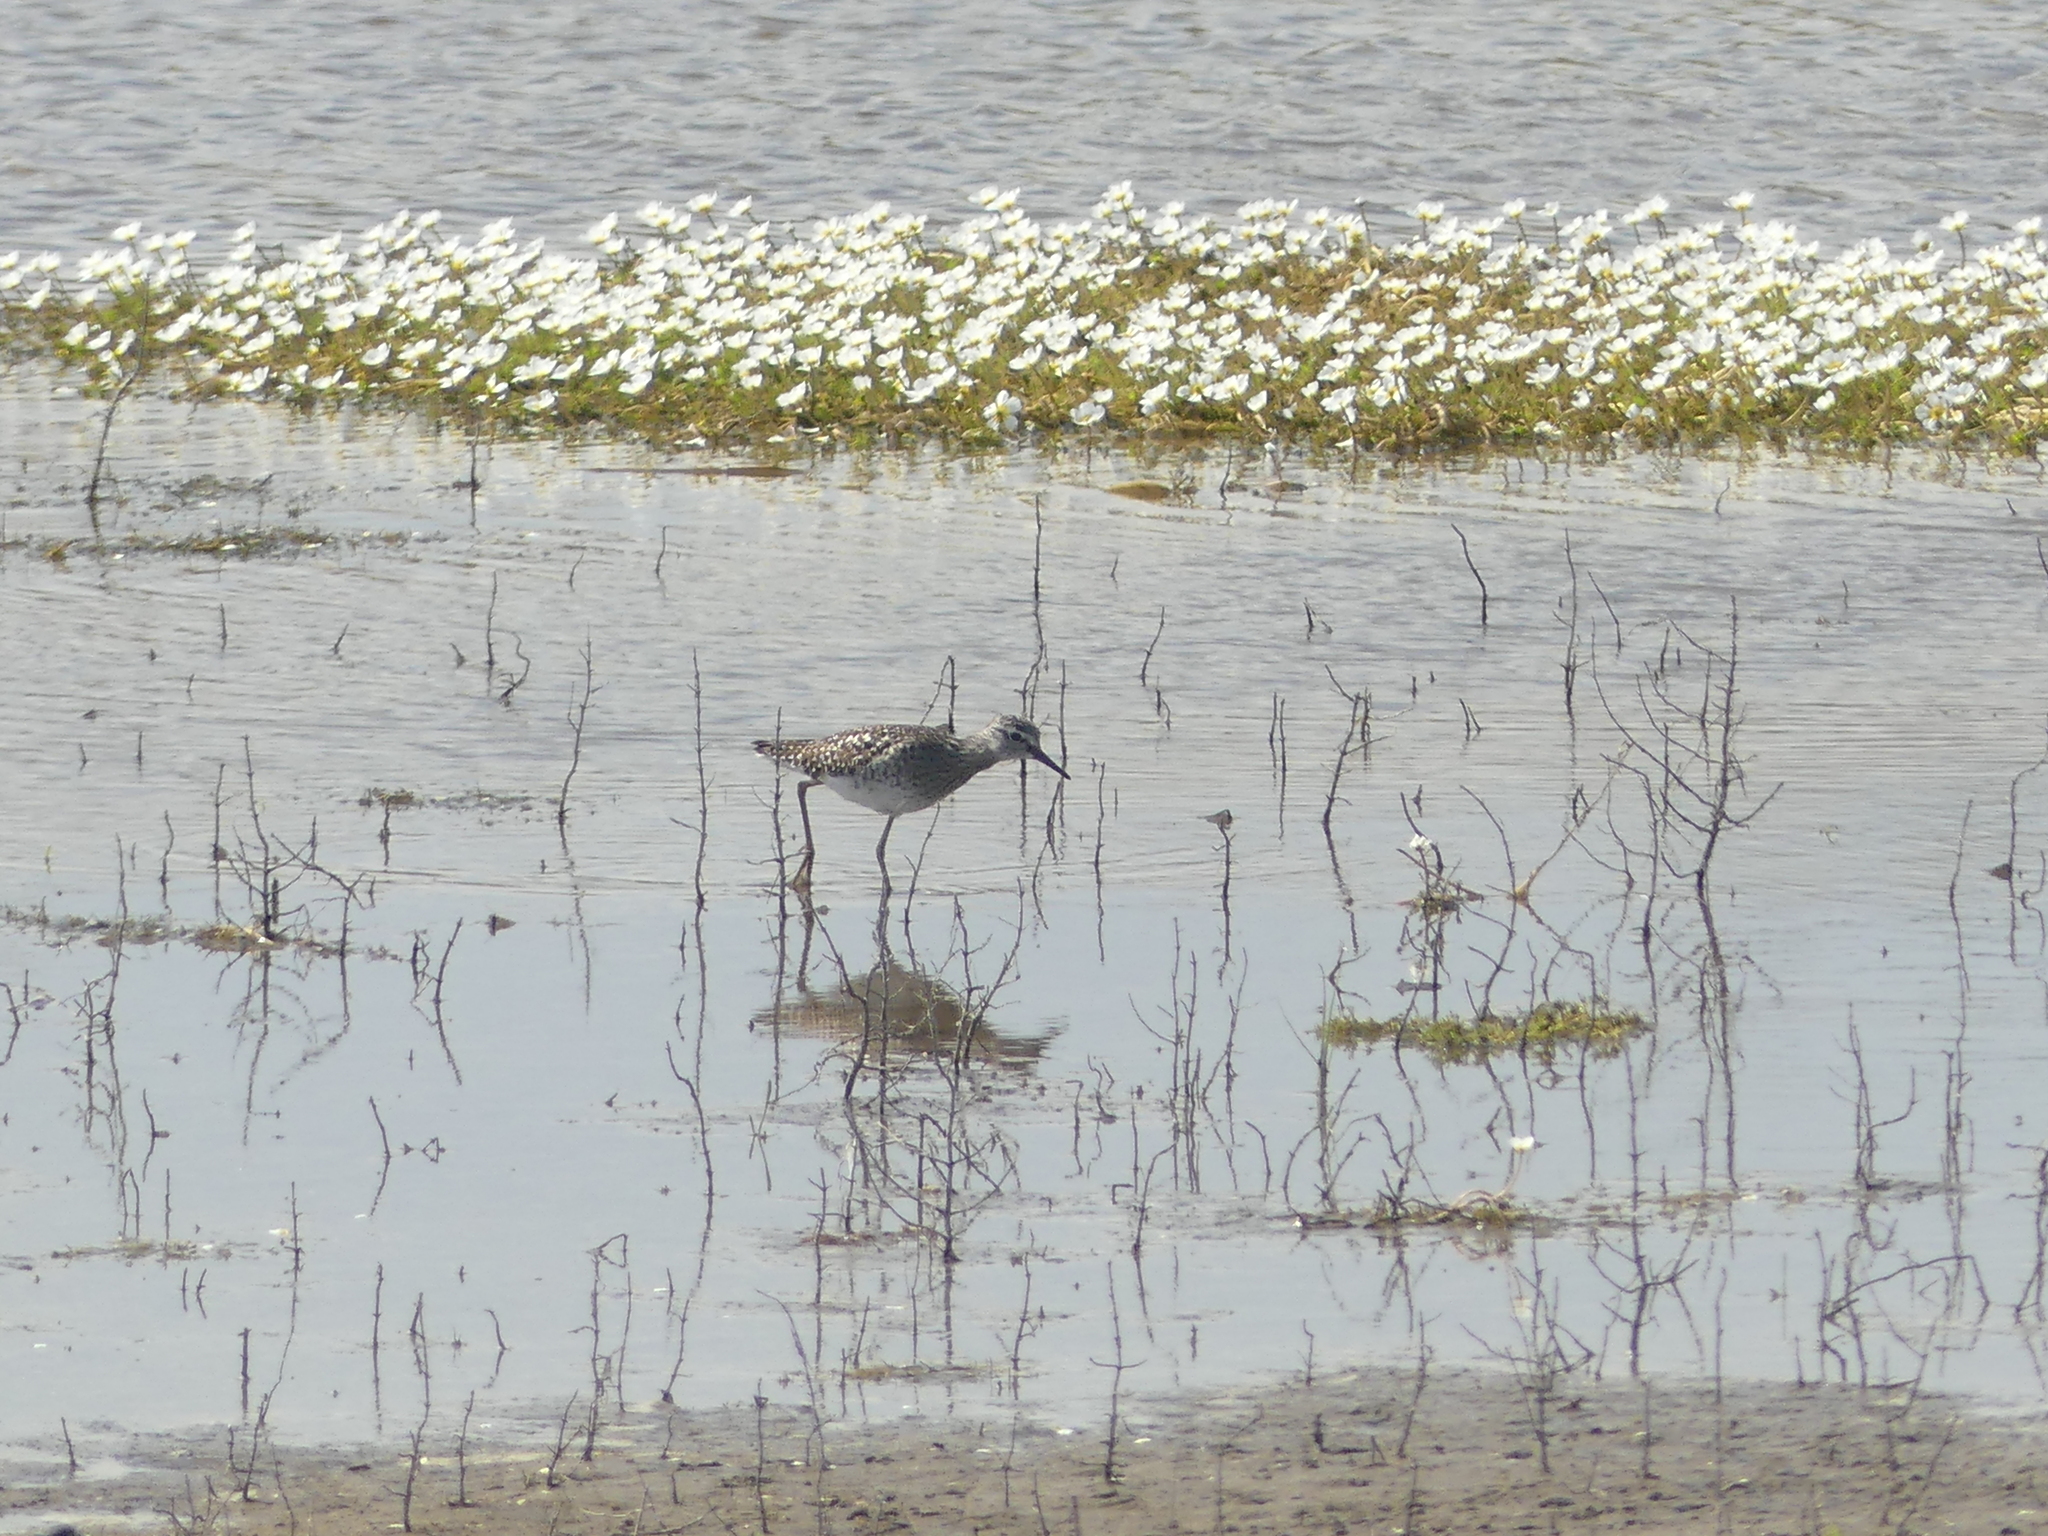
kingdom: Animalia
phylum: Chordata
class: Aves
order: Charadriiformes
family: Scolopacidae
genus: Tringa
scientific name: Tringa glareola
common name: Wood sandpiper
